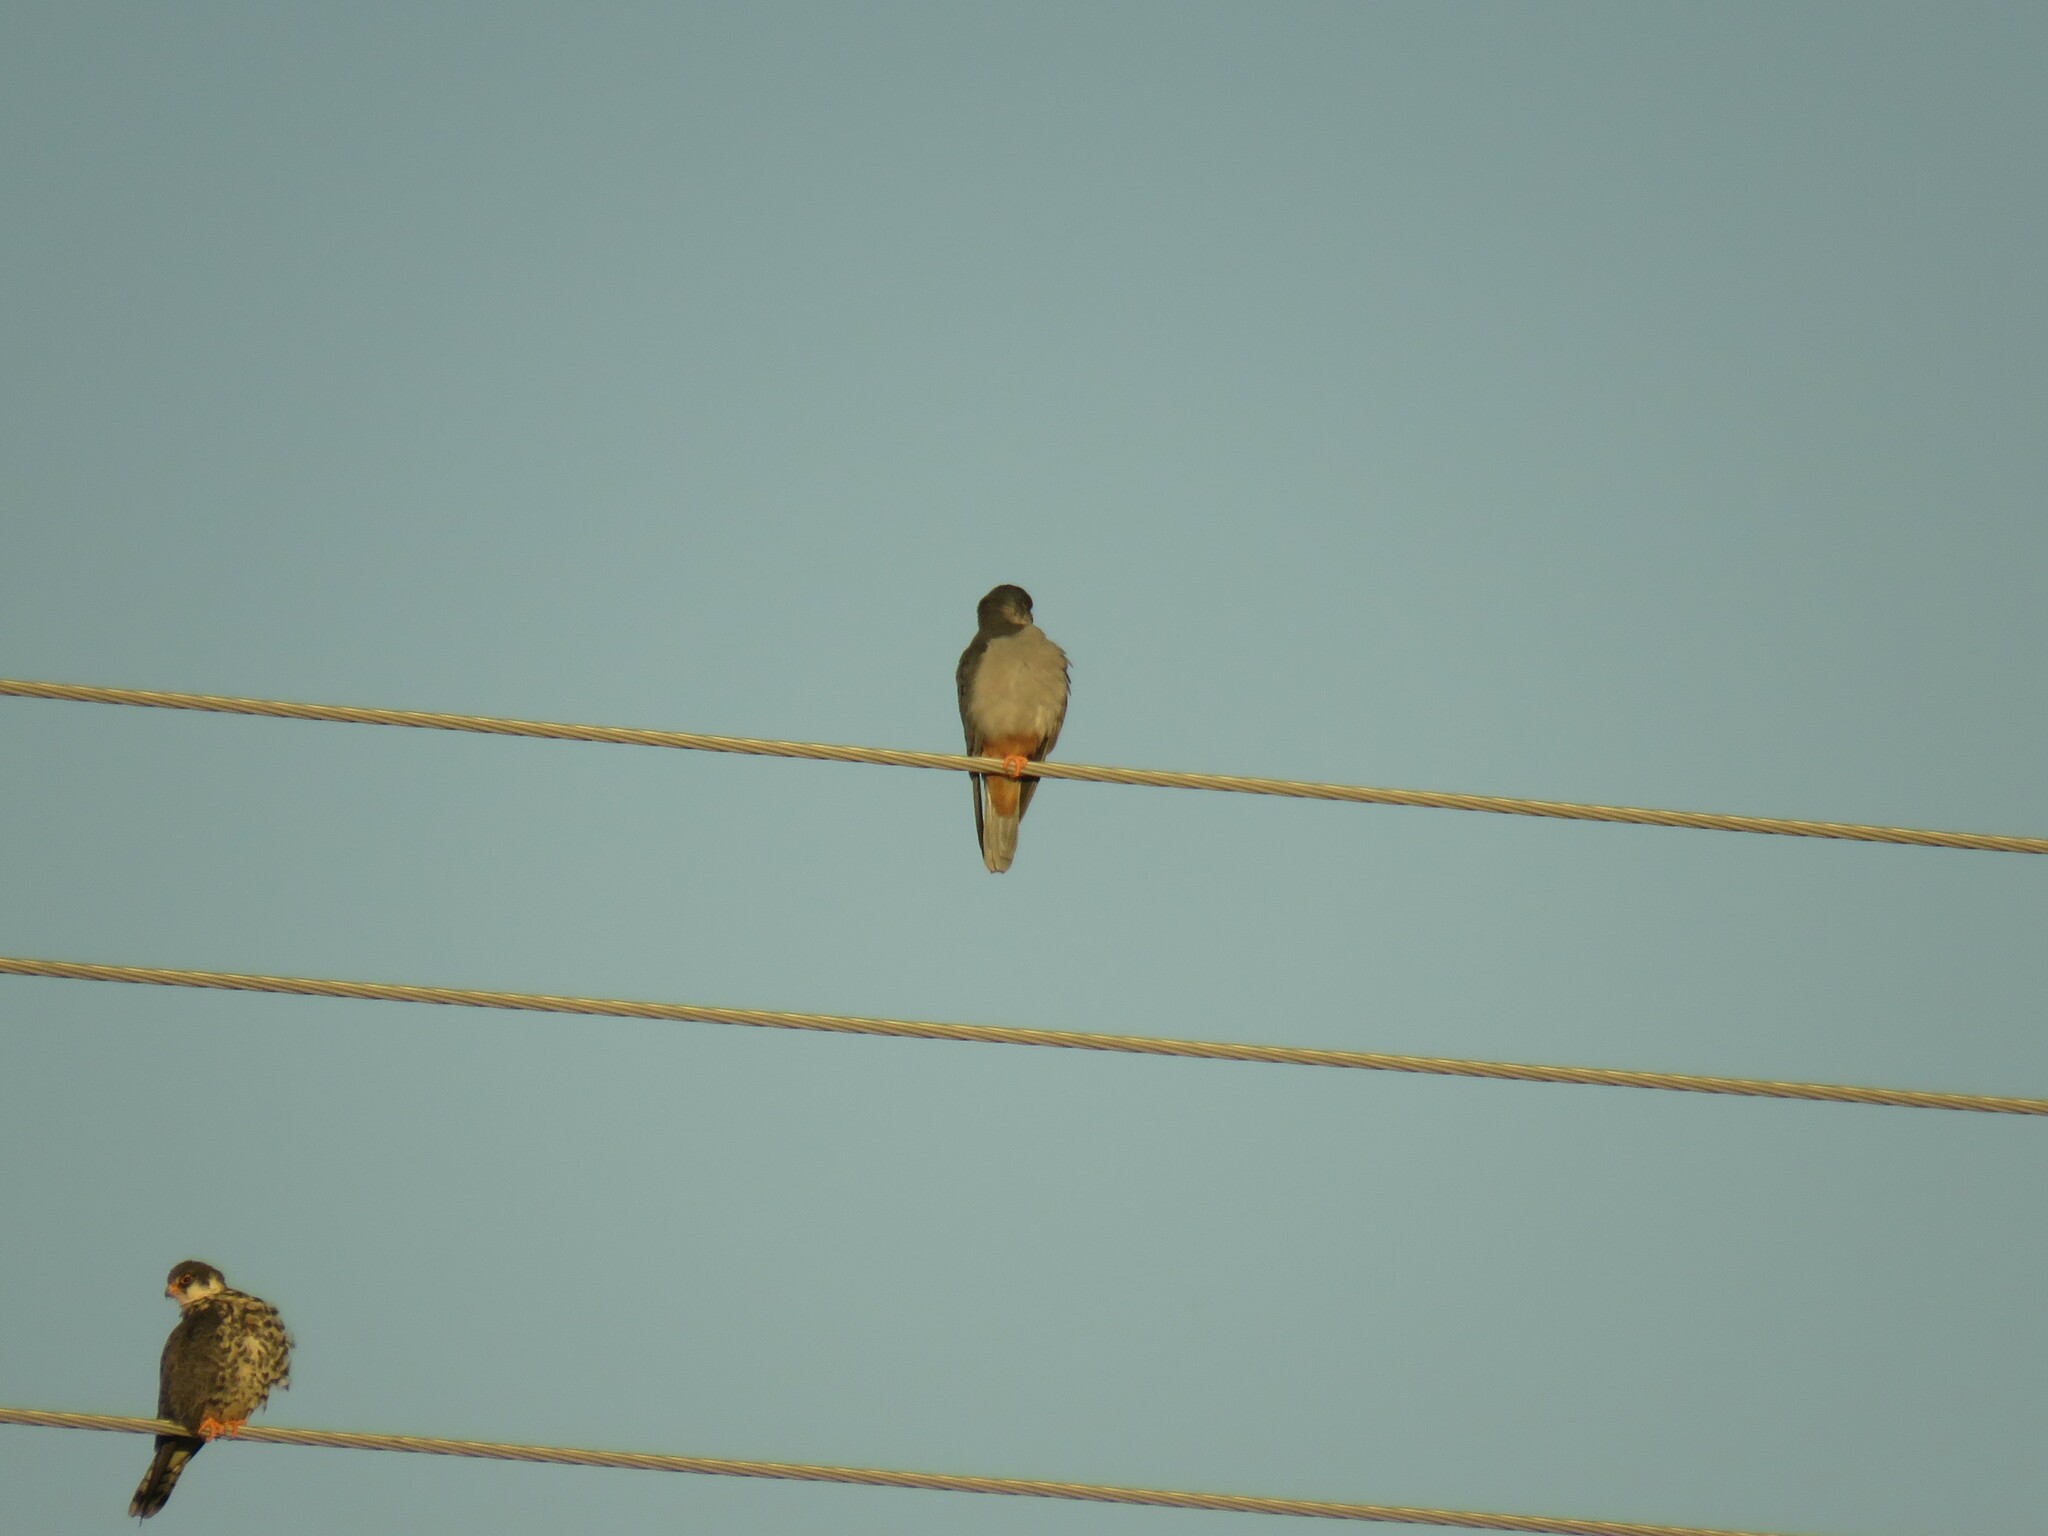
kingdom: Animalia
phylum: Chordata
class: Aves
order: Falconiformes
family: Falconidae
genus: Falco
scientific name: Falco amurensis
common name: Amur falcon
